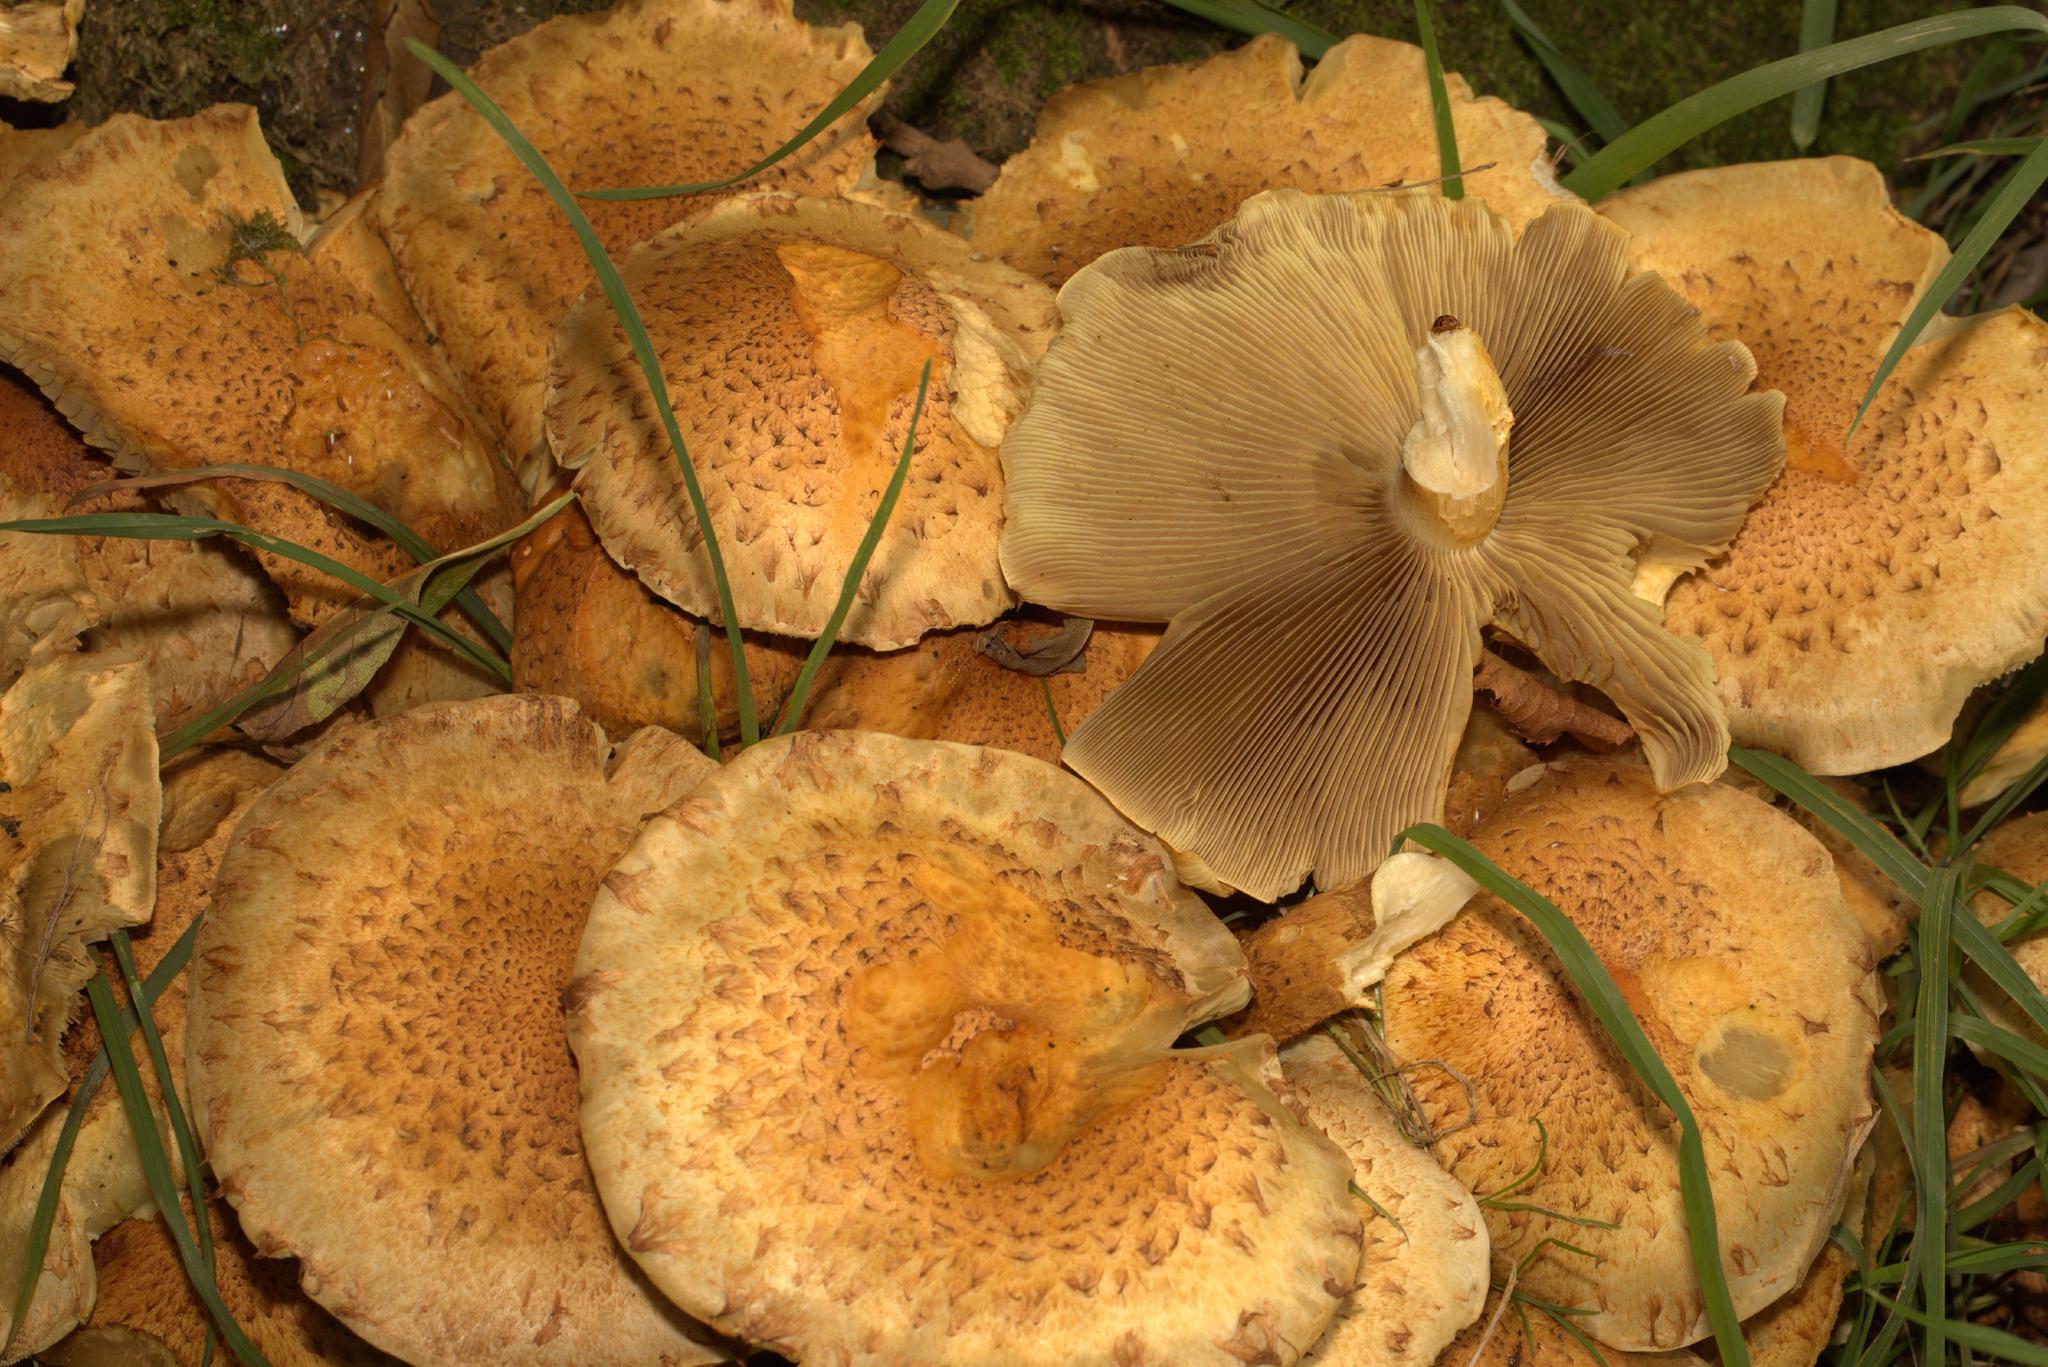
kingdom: Fungi
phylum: Basidiomycota
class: Agaricomycetes
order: Agaricales
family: Strophariaceae
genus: Pholiota
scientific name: Pholiota squarrosa
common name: Shaggy pholiota
